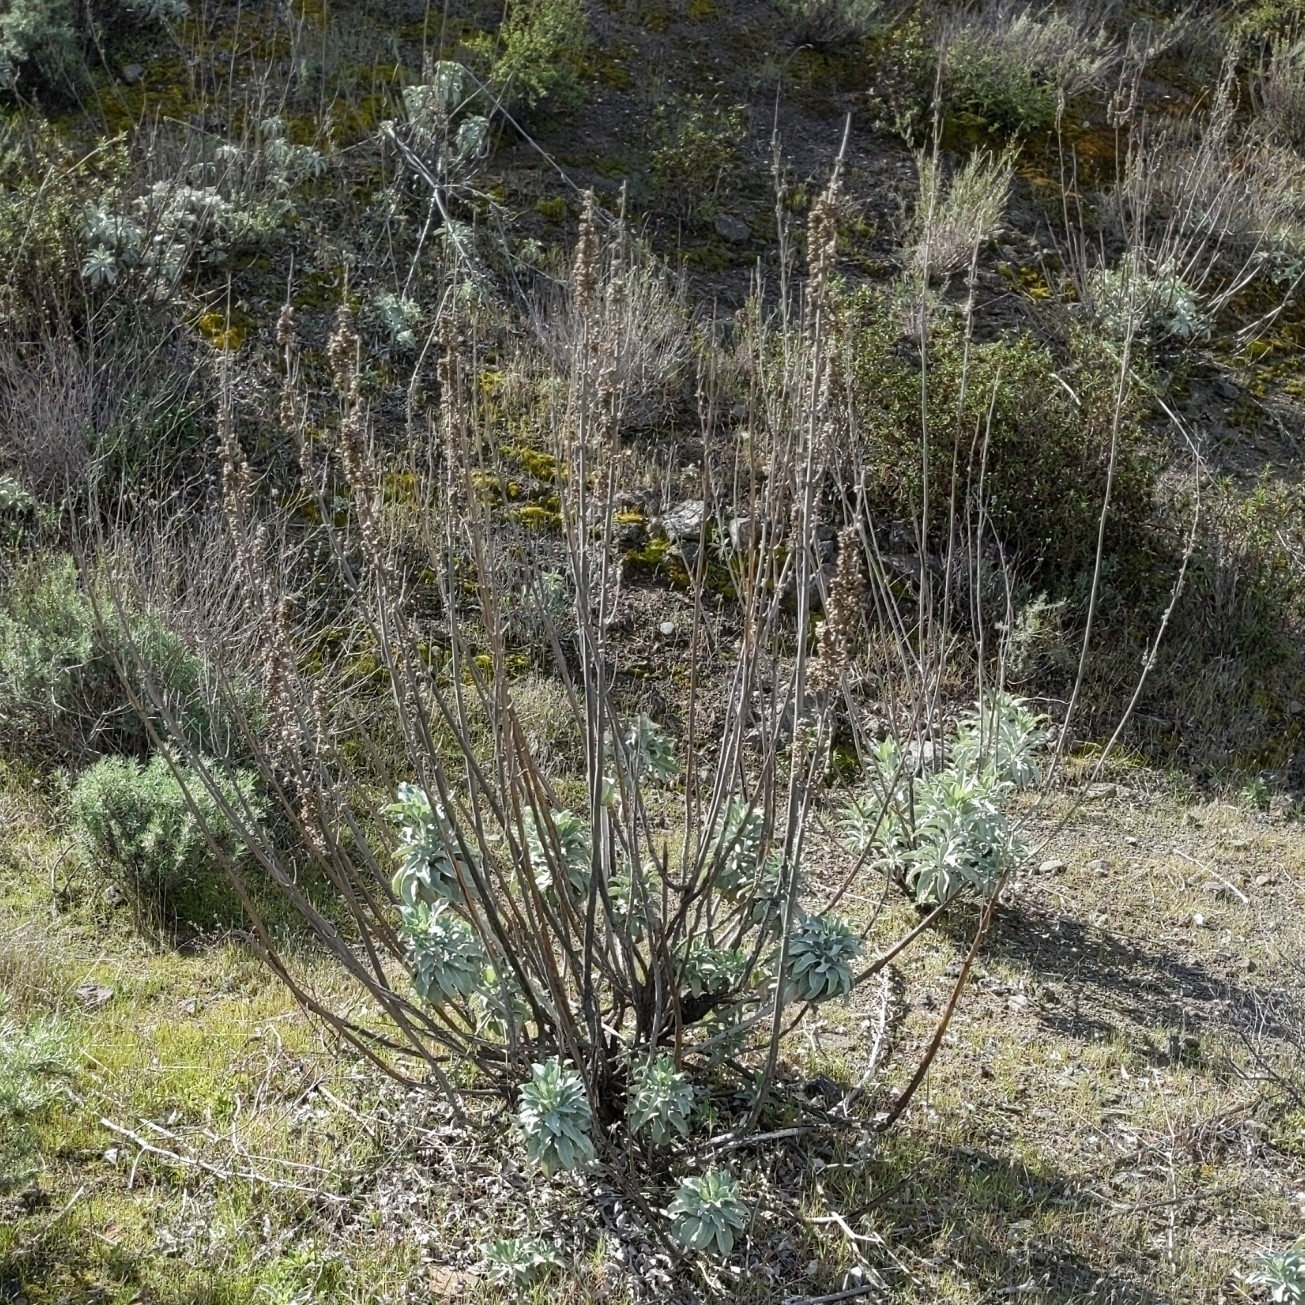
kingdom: Plantae
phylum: Tracheophyta
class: Magnoliopsida
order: Lamiales
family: Lamiaceae
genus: Salvia
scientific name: Salvia apiana
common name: White sage
